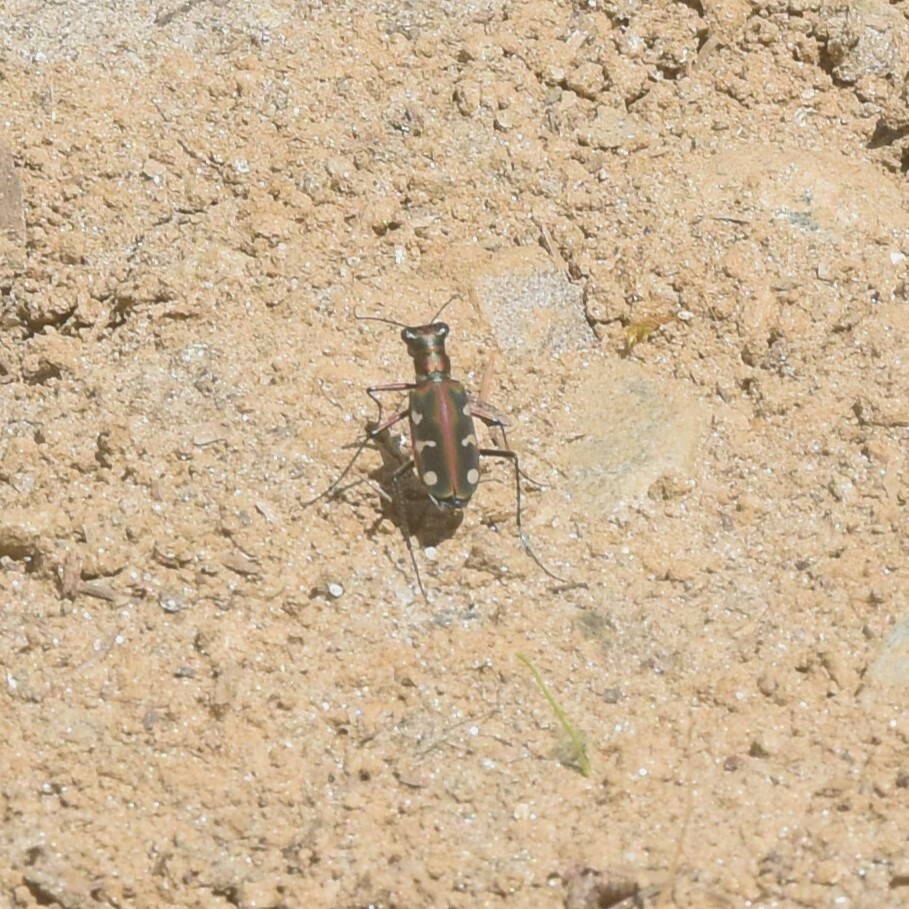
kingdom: Animalia
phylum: Arthropoda
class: Insecta
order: Coleoptera
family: Carabidae
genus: Cicindela
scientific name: Cicindela virgula
